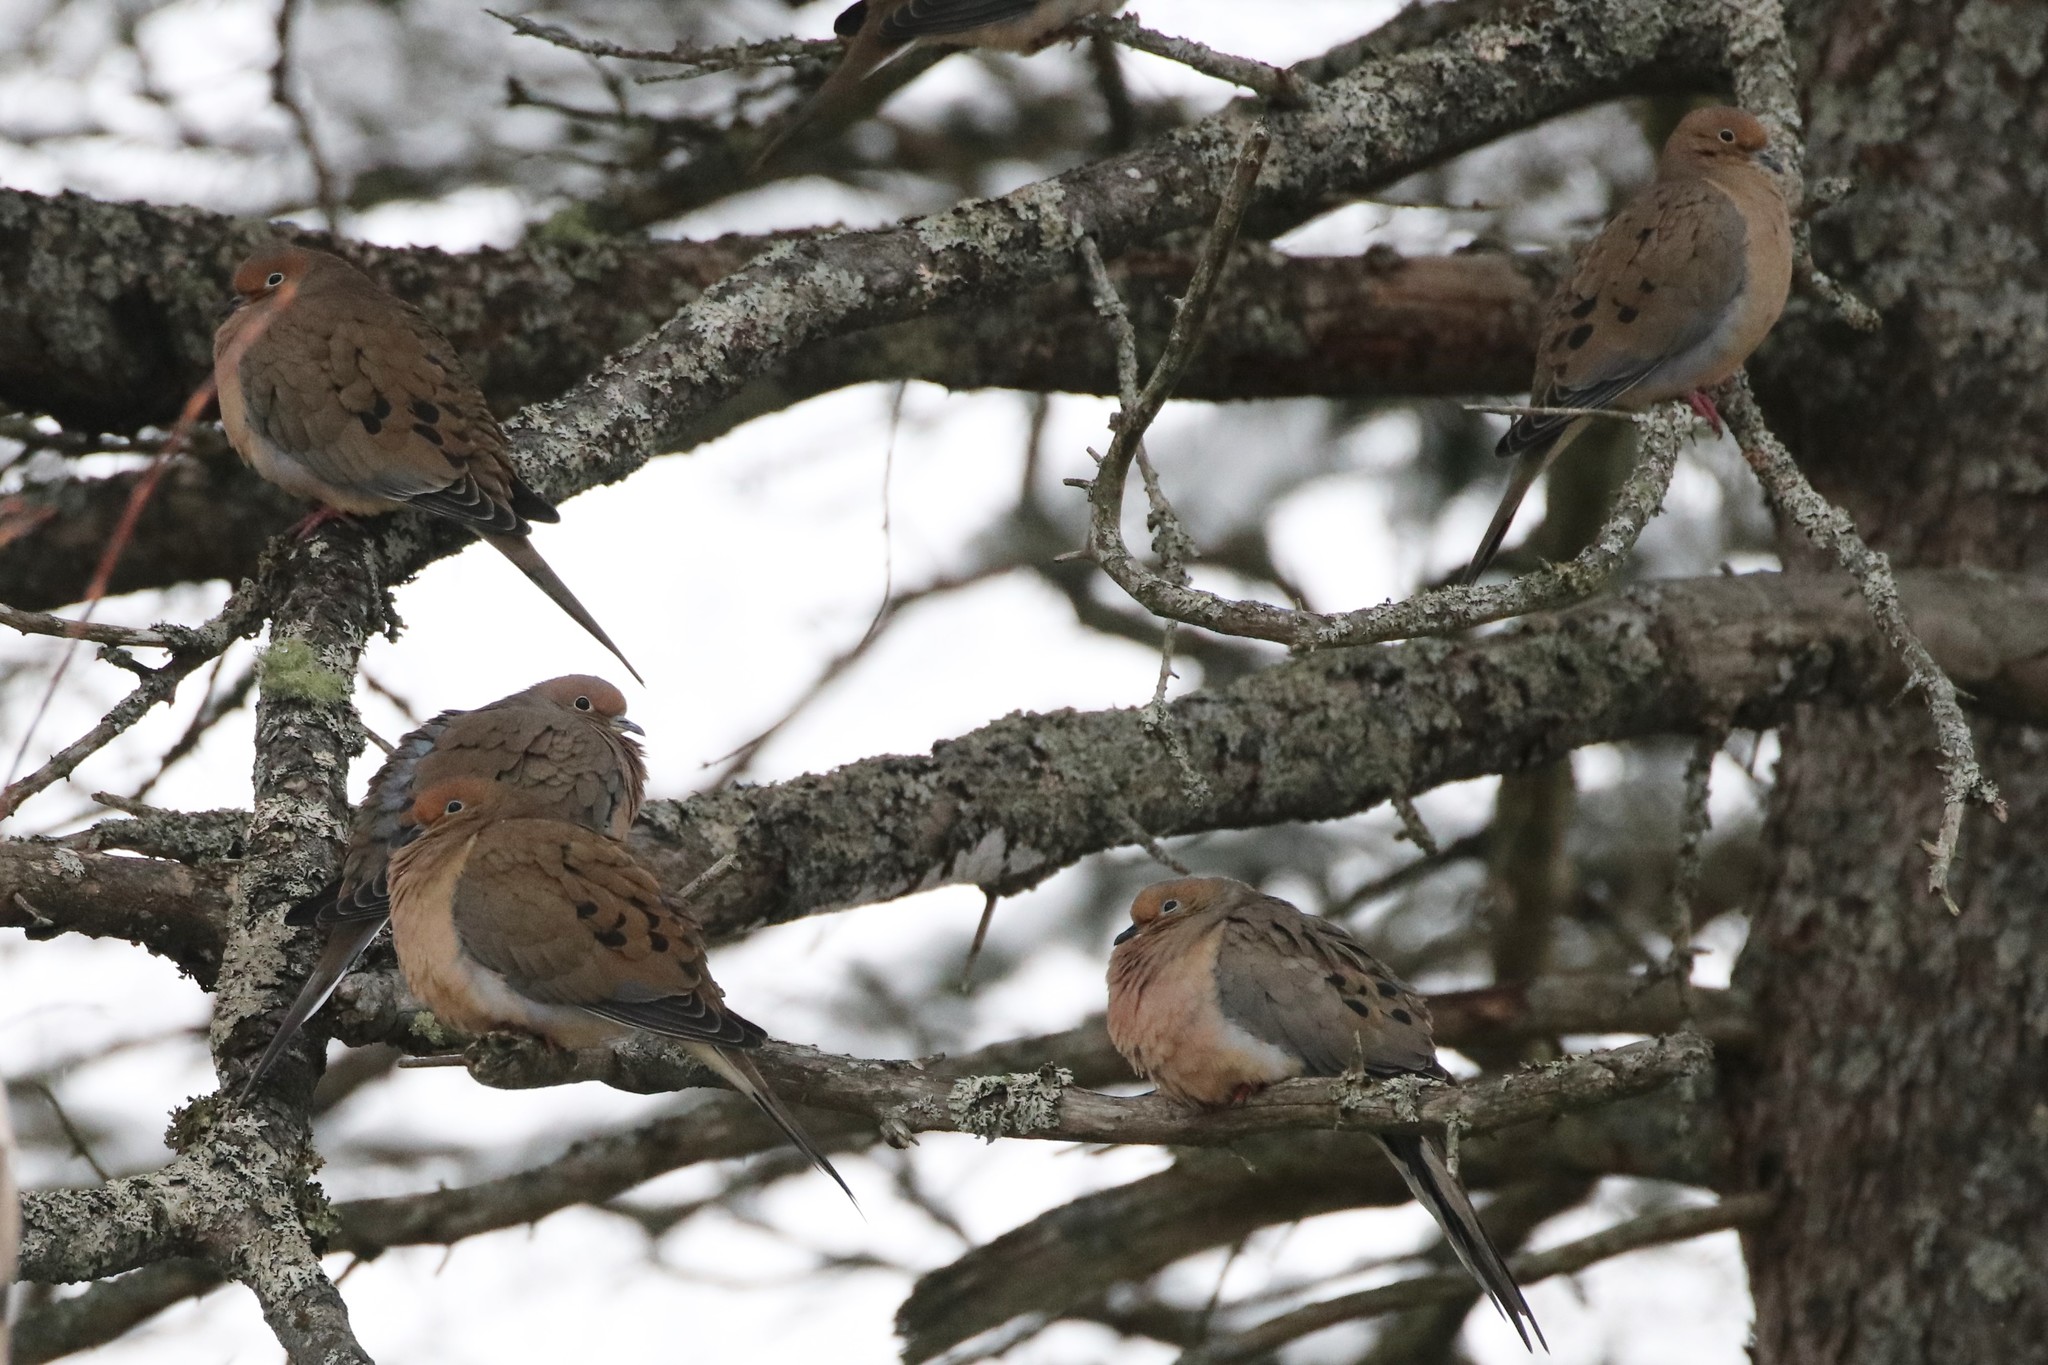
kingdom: Animalia
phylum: Chordata
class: Aves
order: Columbiformes
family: Columbidae
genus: Zenaida
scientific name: Zenaida macroura
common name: Mourning dove
